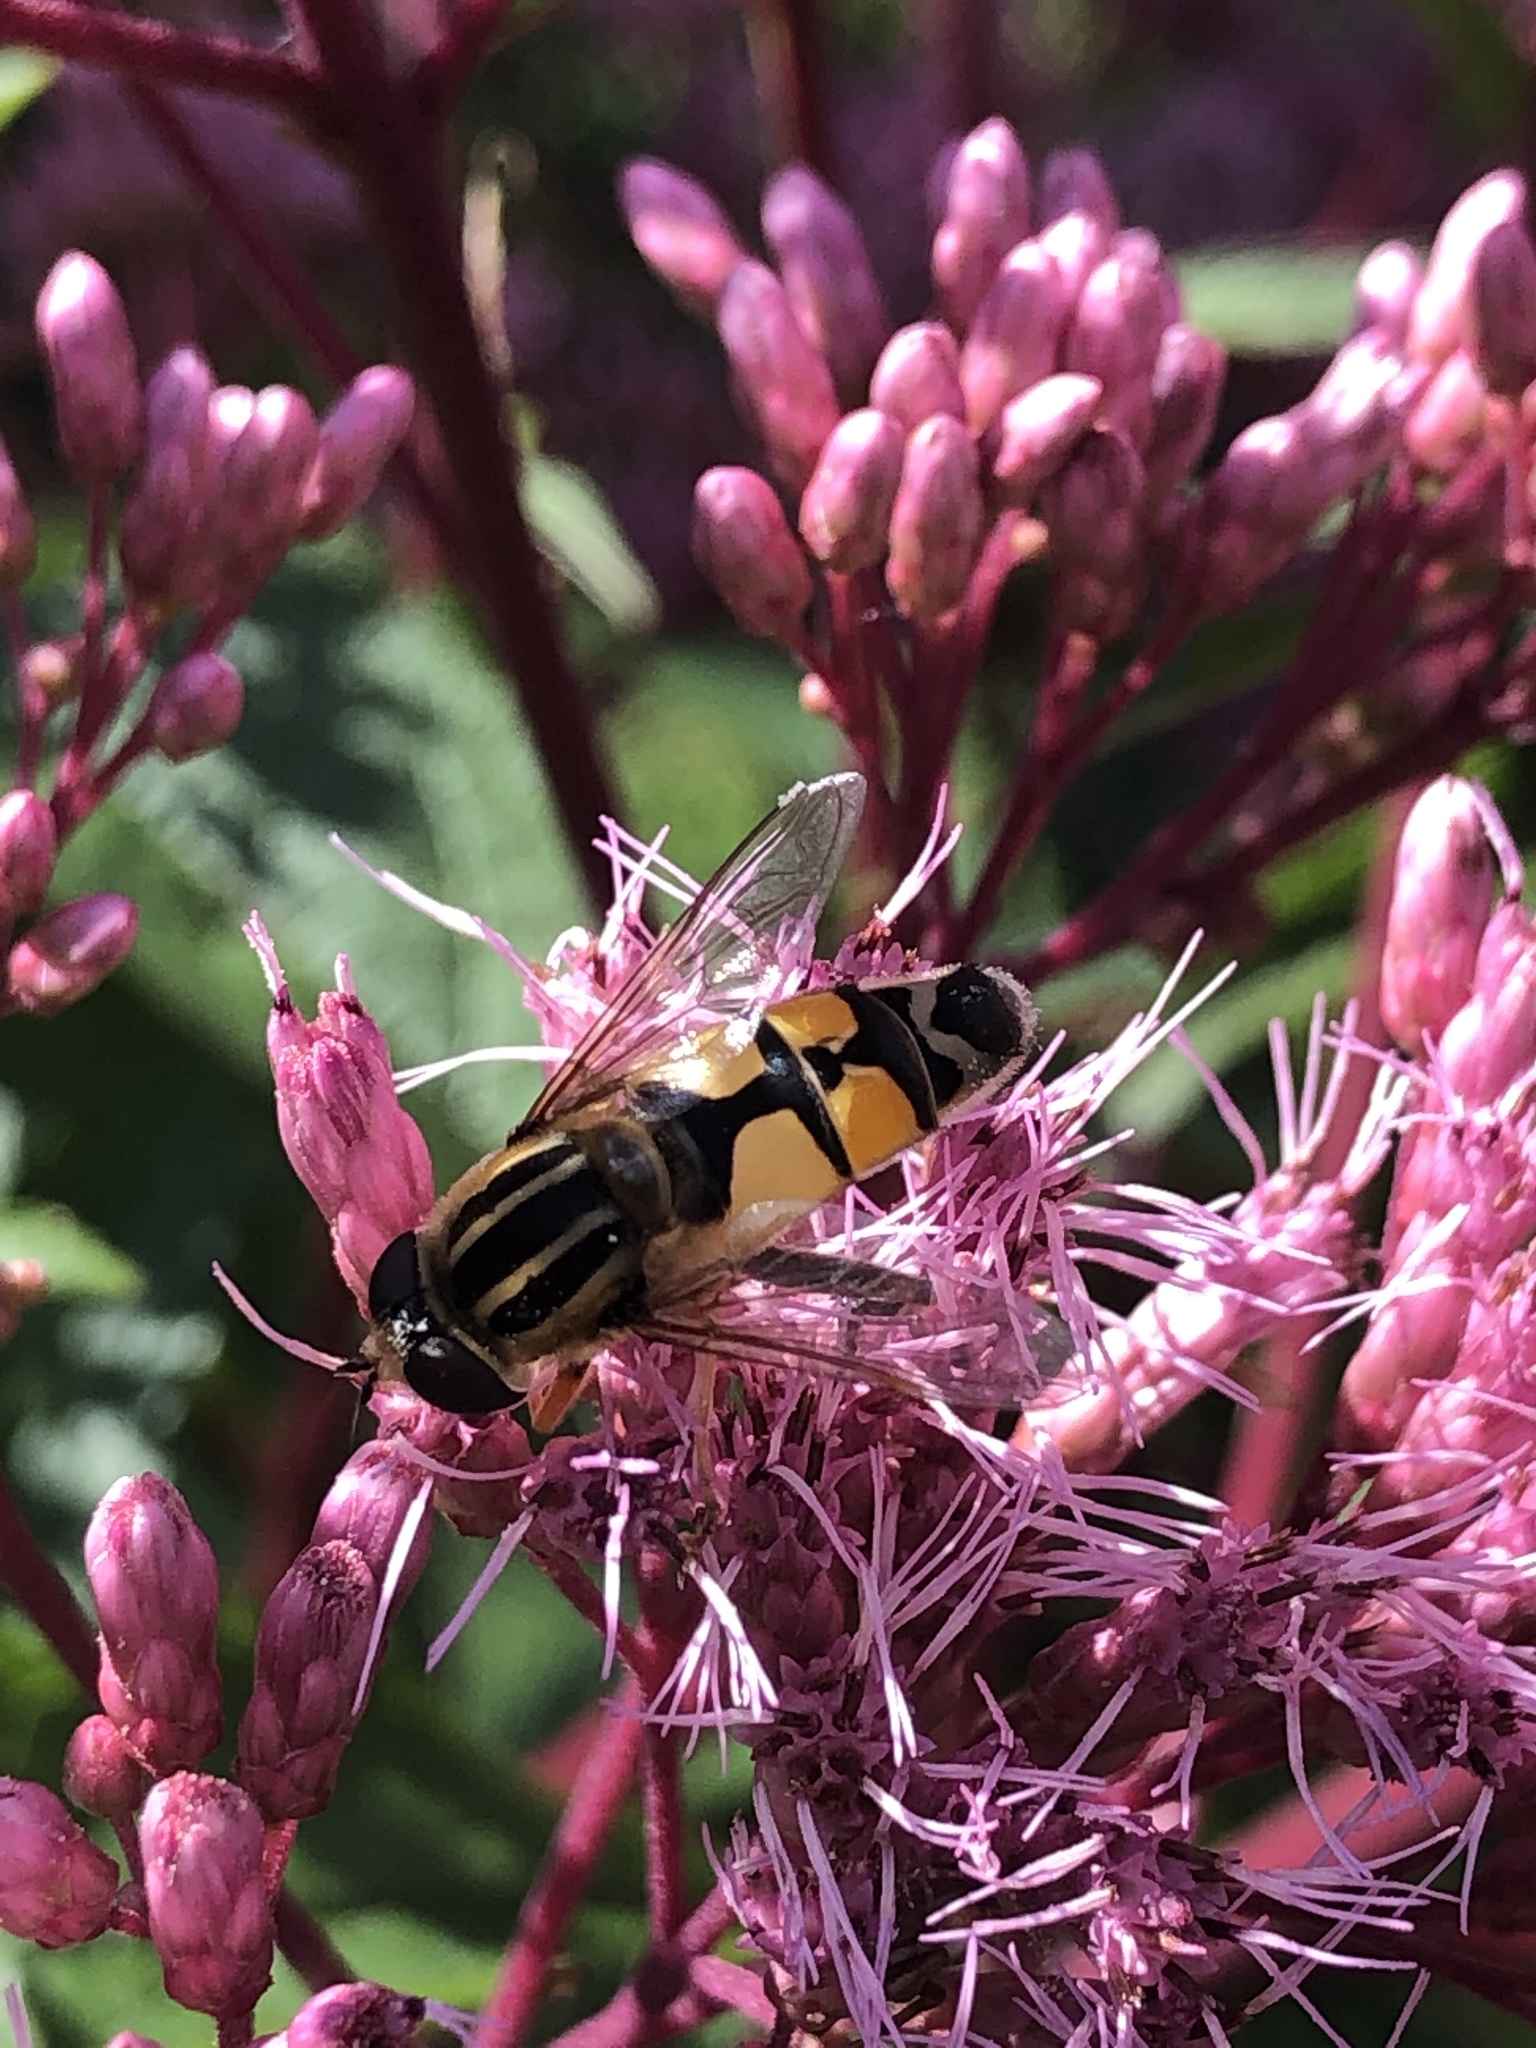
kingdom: Animalia
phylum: Arthropoda
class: Insecta
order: Diptera
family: Syrphidae
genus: Helophilus
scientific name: Helophilus trivittatus
